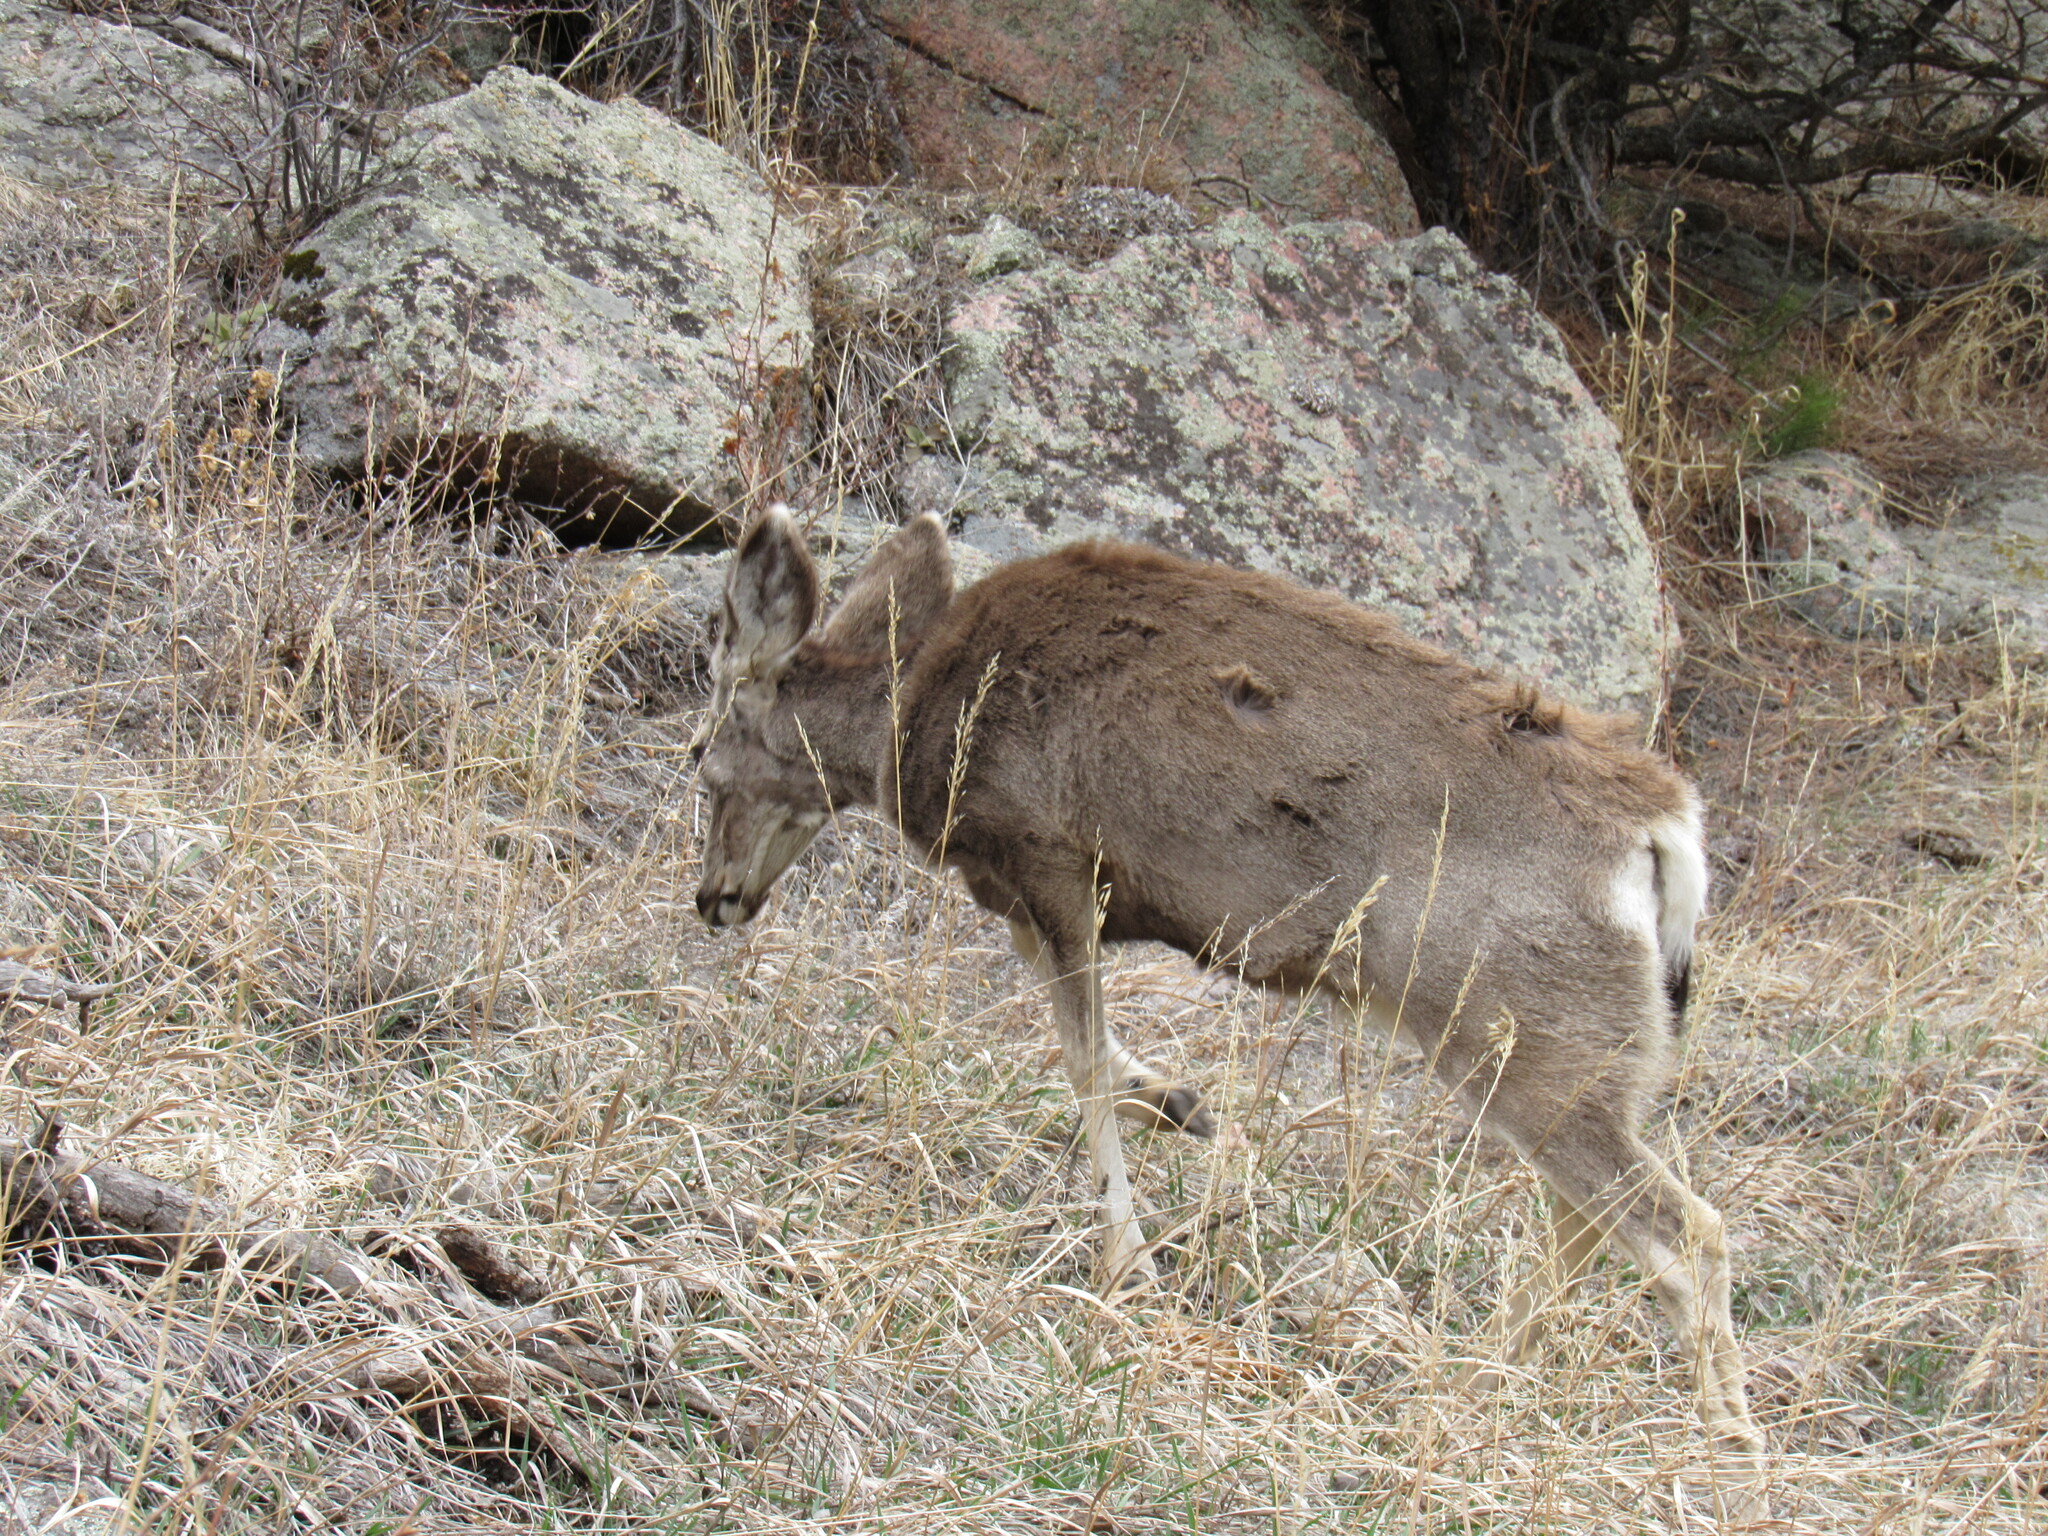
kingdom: Animalia
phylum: Chordata
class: Mammalia
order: Artiodactyla
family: Cervidae
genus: Odocoileus
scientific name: Odocoileus hemionus
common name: Mule deer
